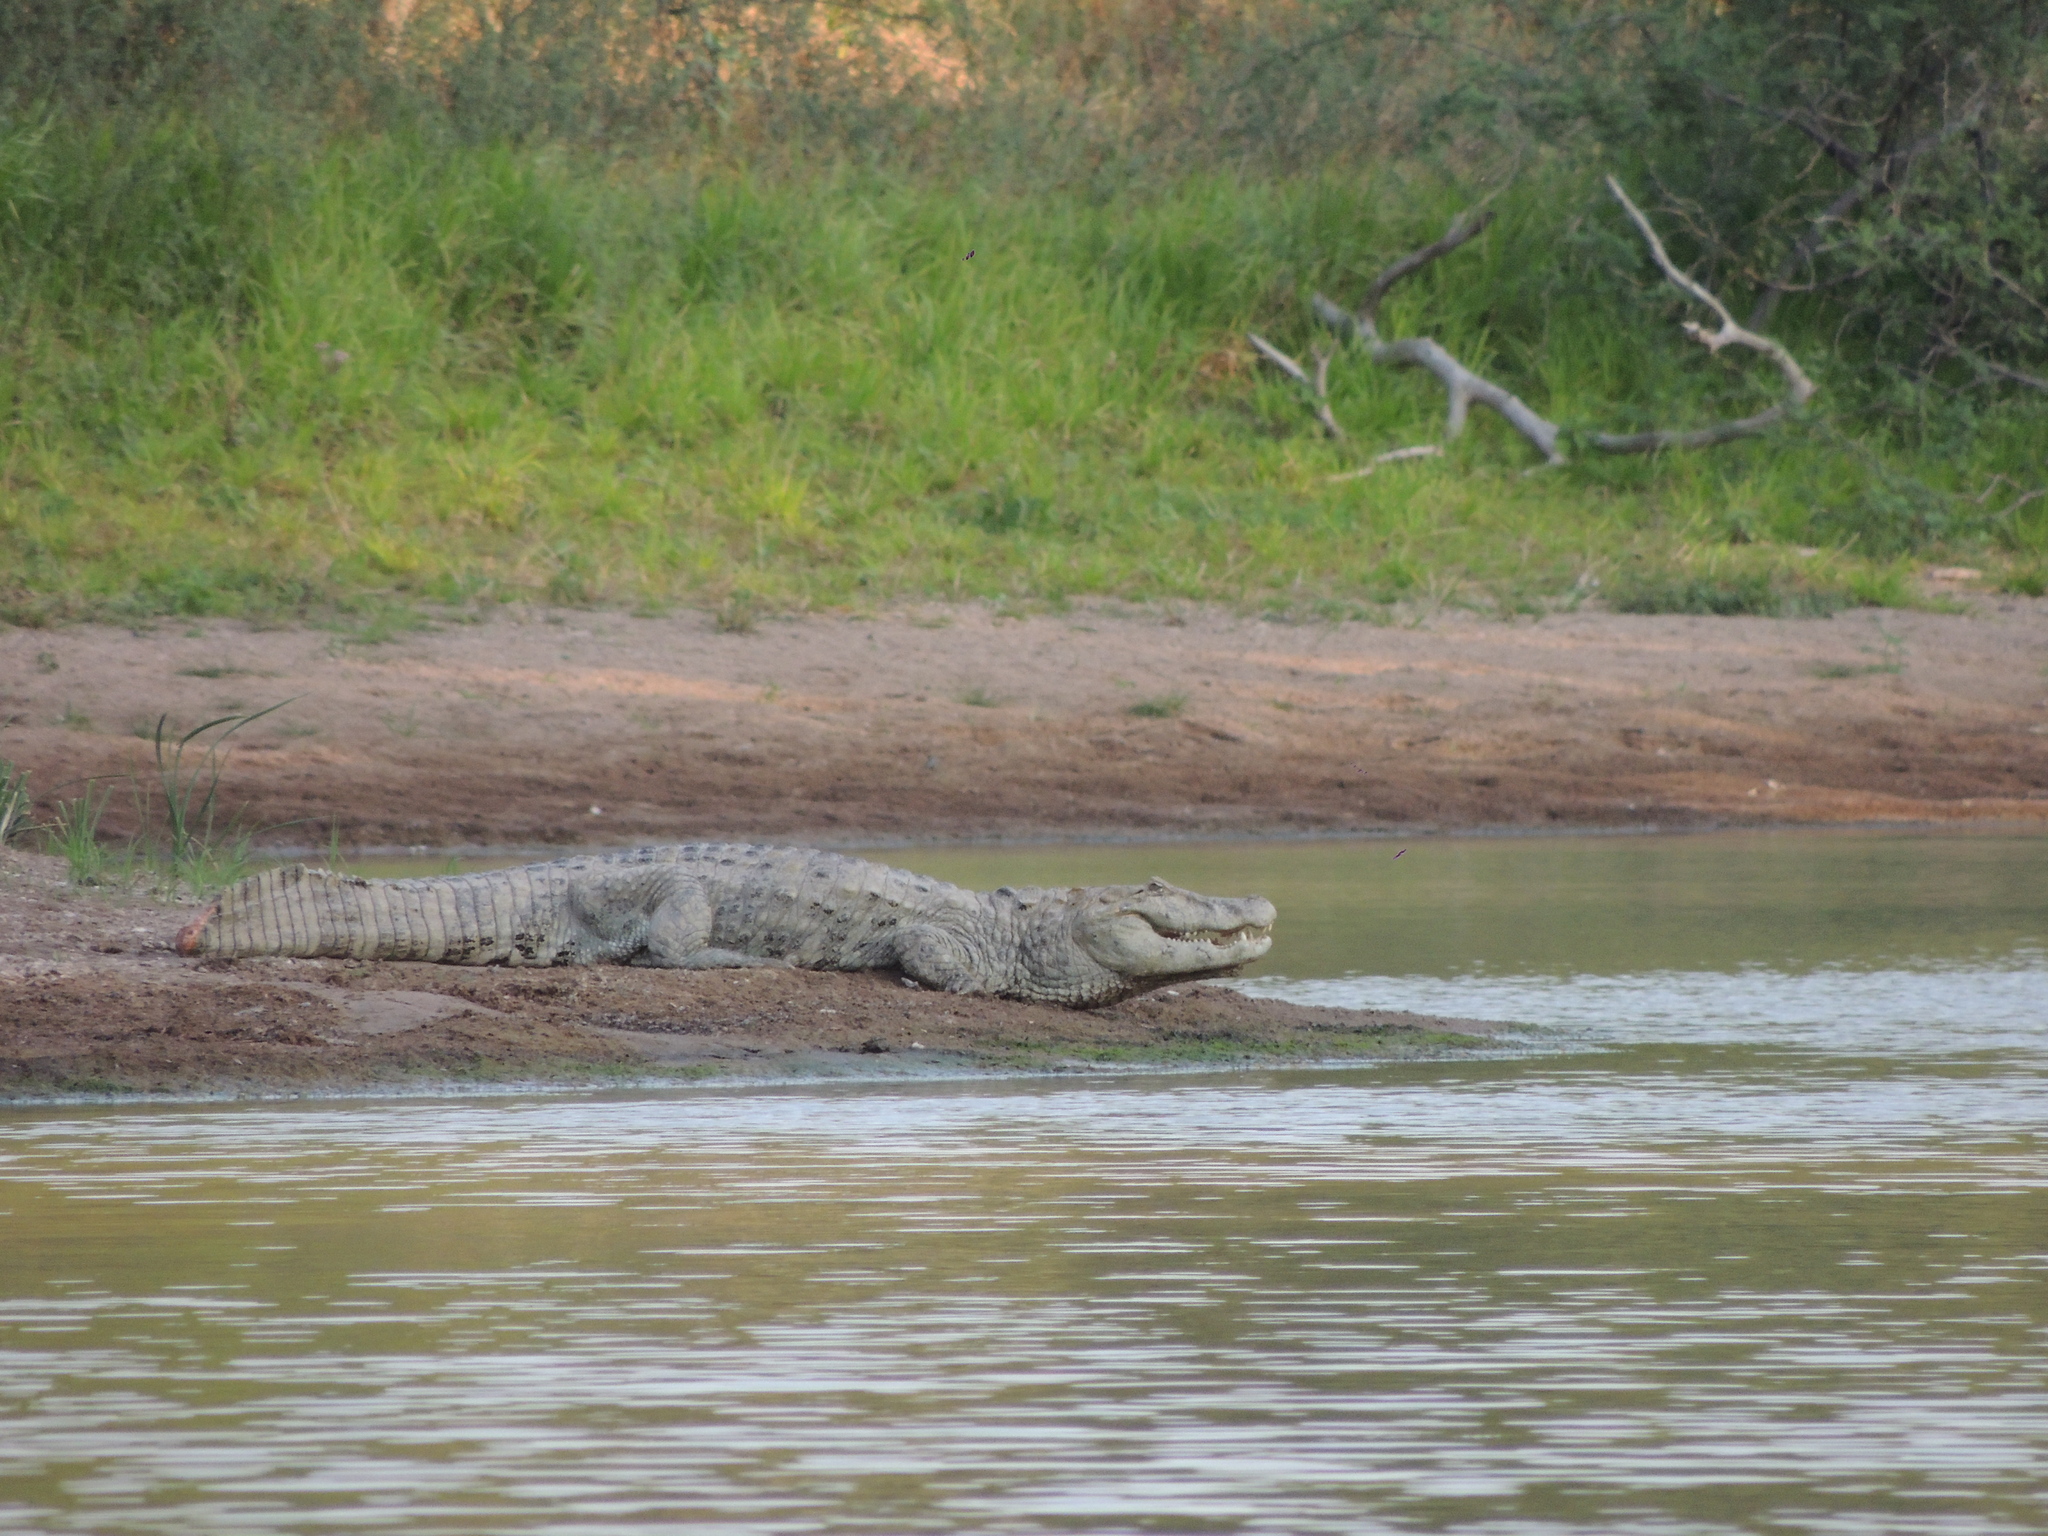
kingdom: Animalia
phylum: Chordata
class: Crocodylia
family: Alligatoridae
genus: Caiman
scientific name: Caiman latirostris
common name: Broad-snouted caiman
